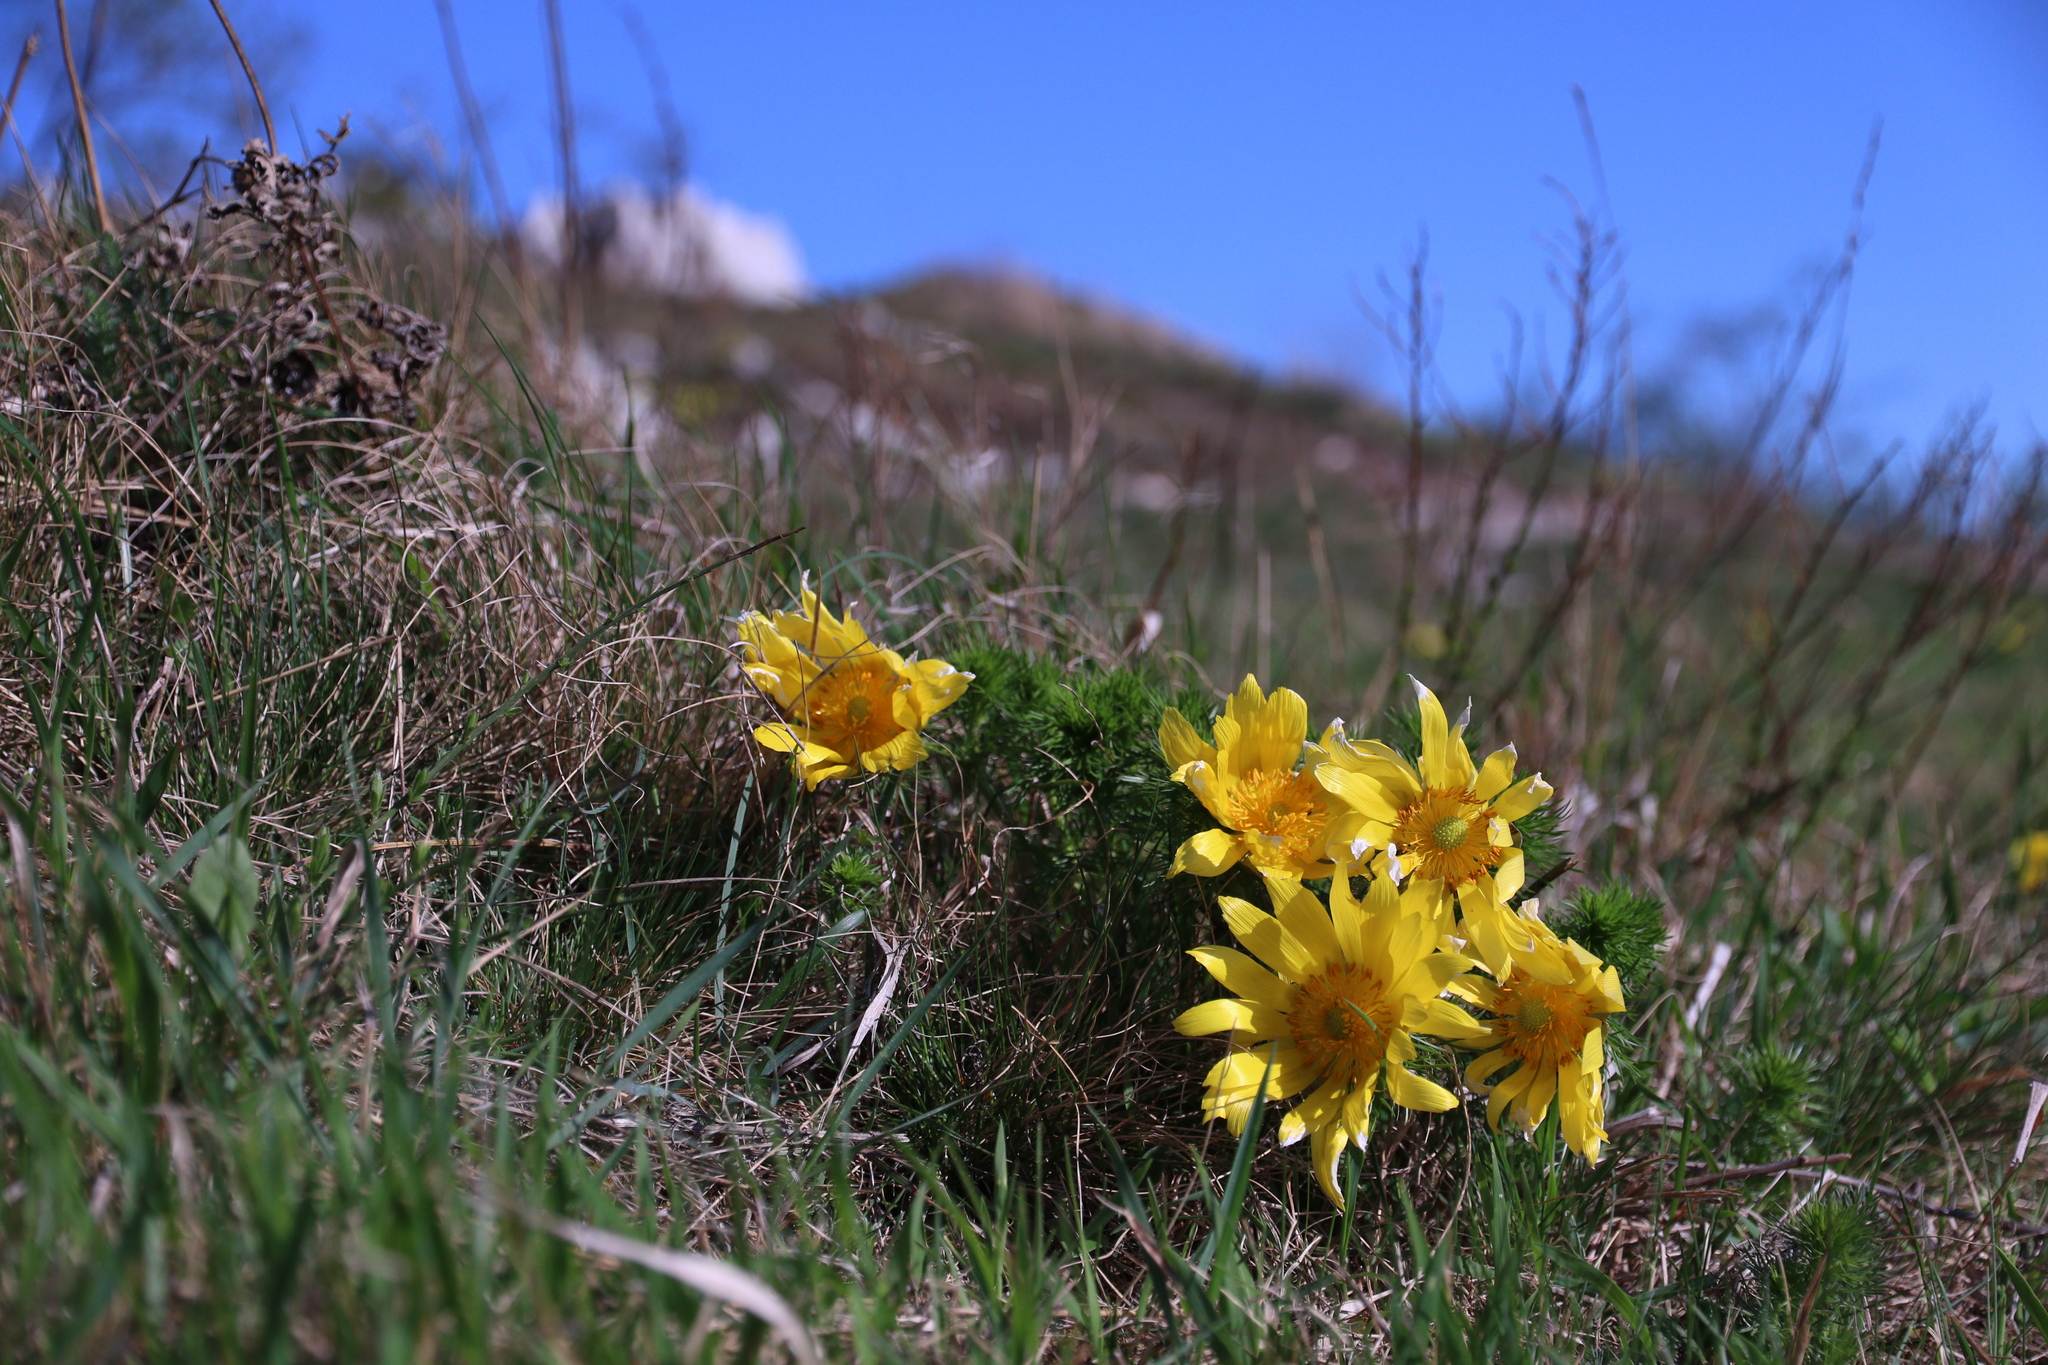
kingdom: Plantae
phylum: Tracheophyta
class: Magnoliopsida
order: Ranunculales
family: Ranunculaceae
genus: Adonis
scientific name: Adonis vernalis
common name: Yellow pheasants-eye
